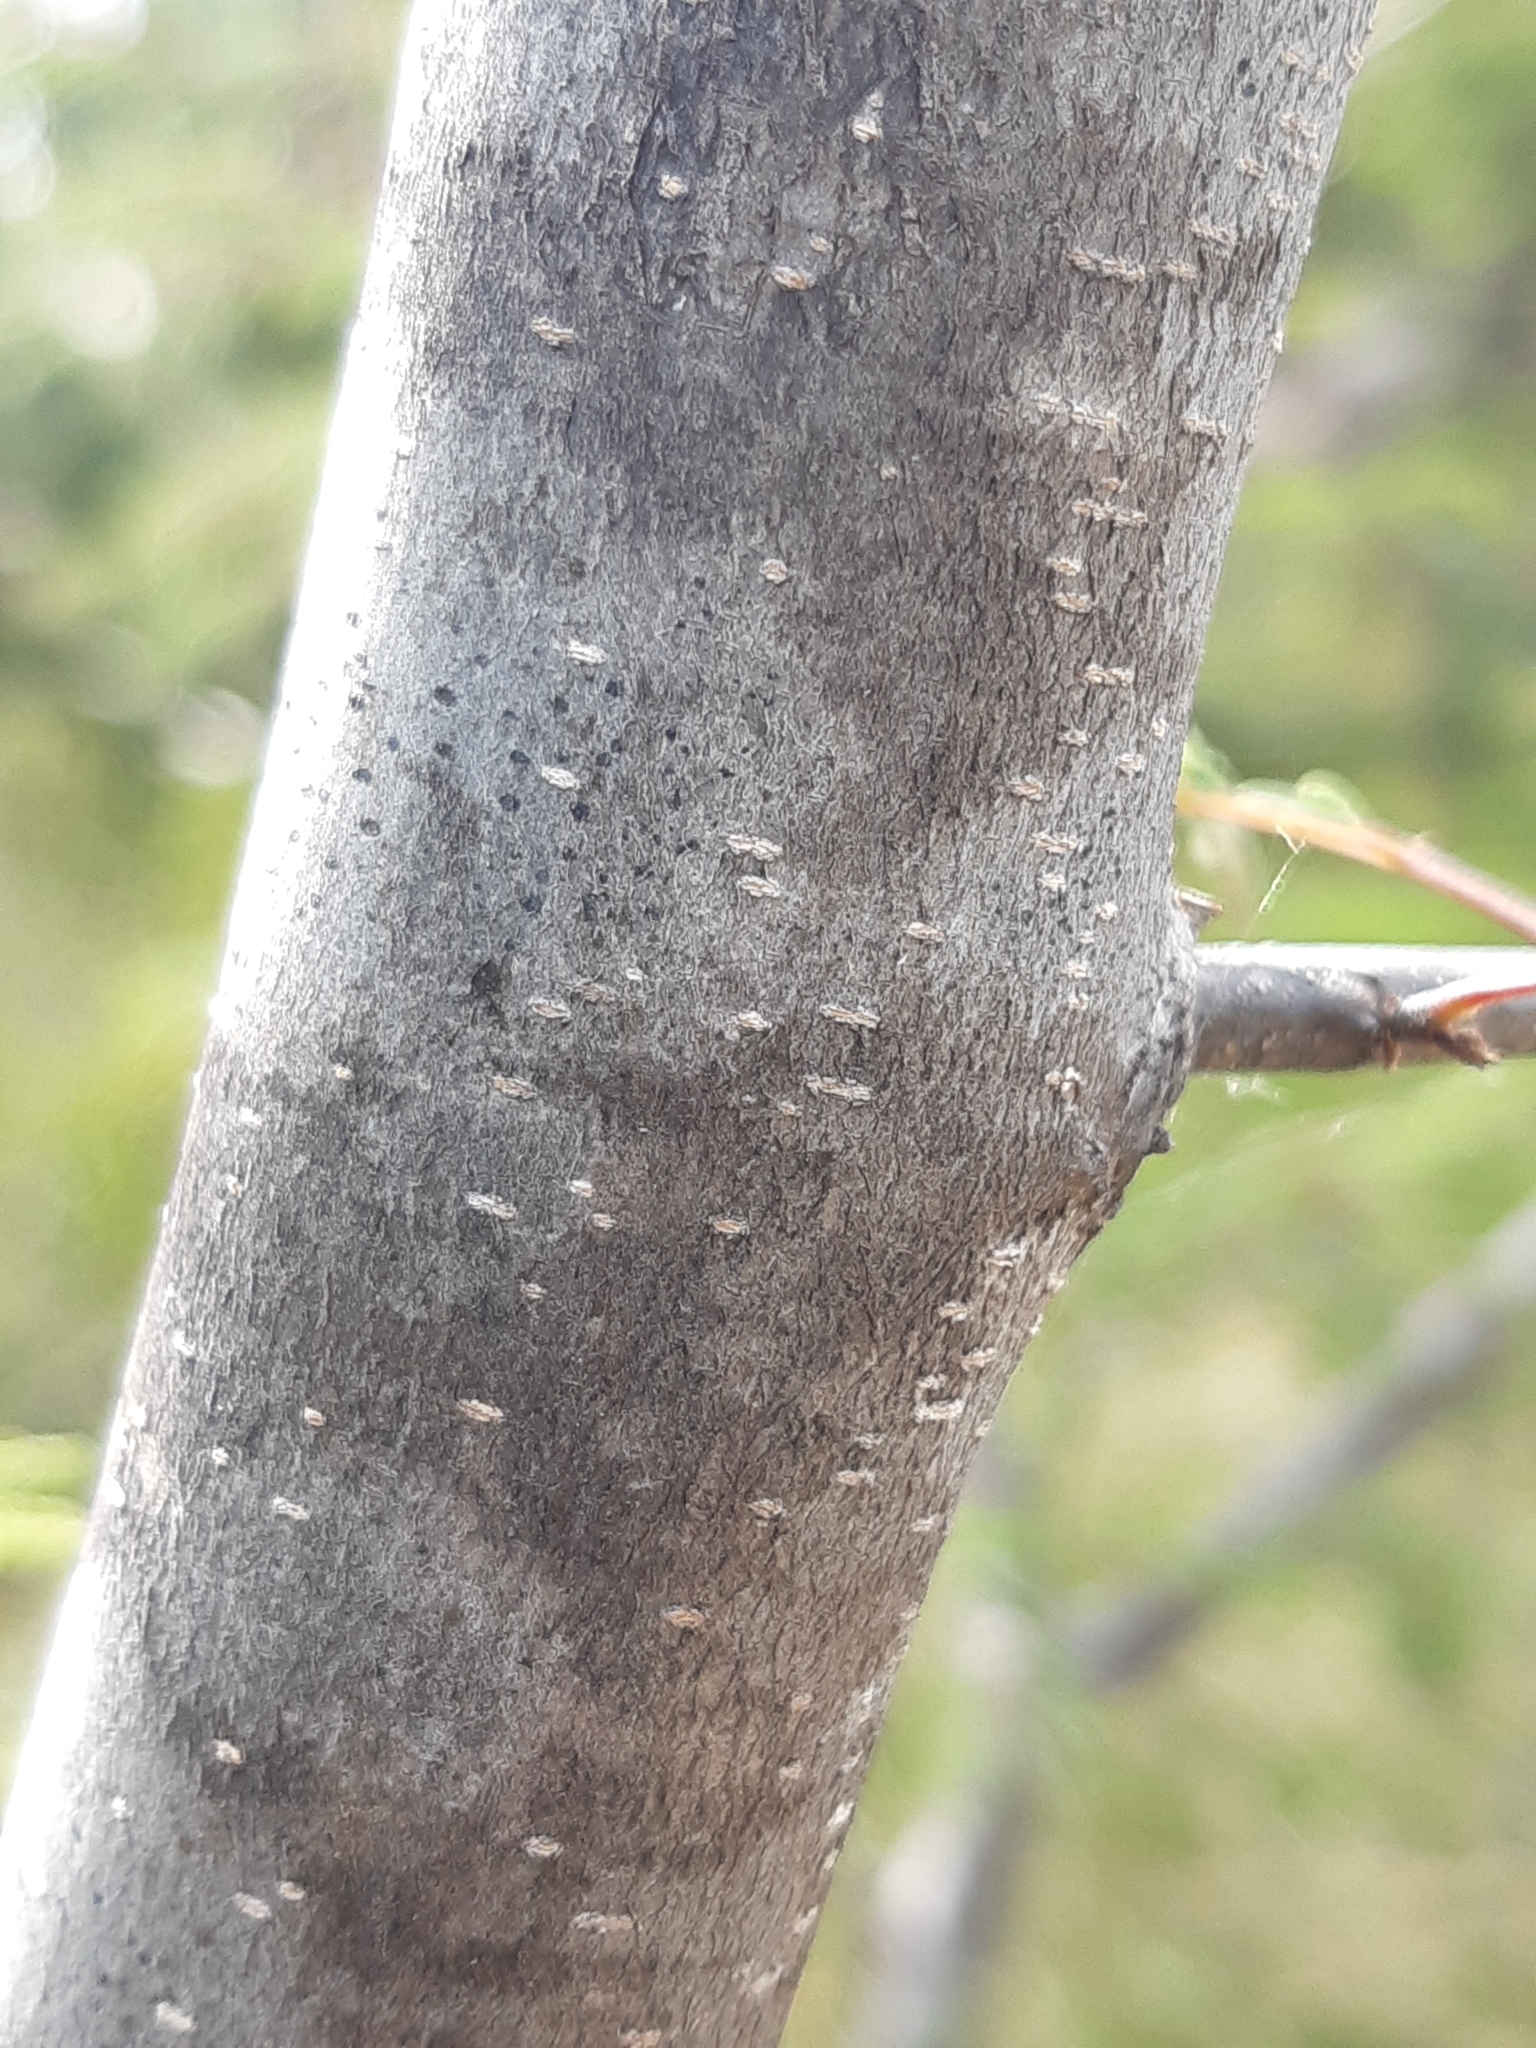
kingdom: Plantae
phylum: Tracheophyta
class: Magnoliopsida
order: Fabales
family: Fabaceae
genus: Lysiloma
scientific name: Lysiloma divaricatum
